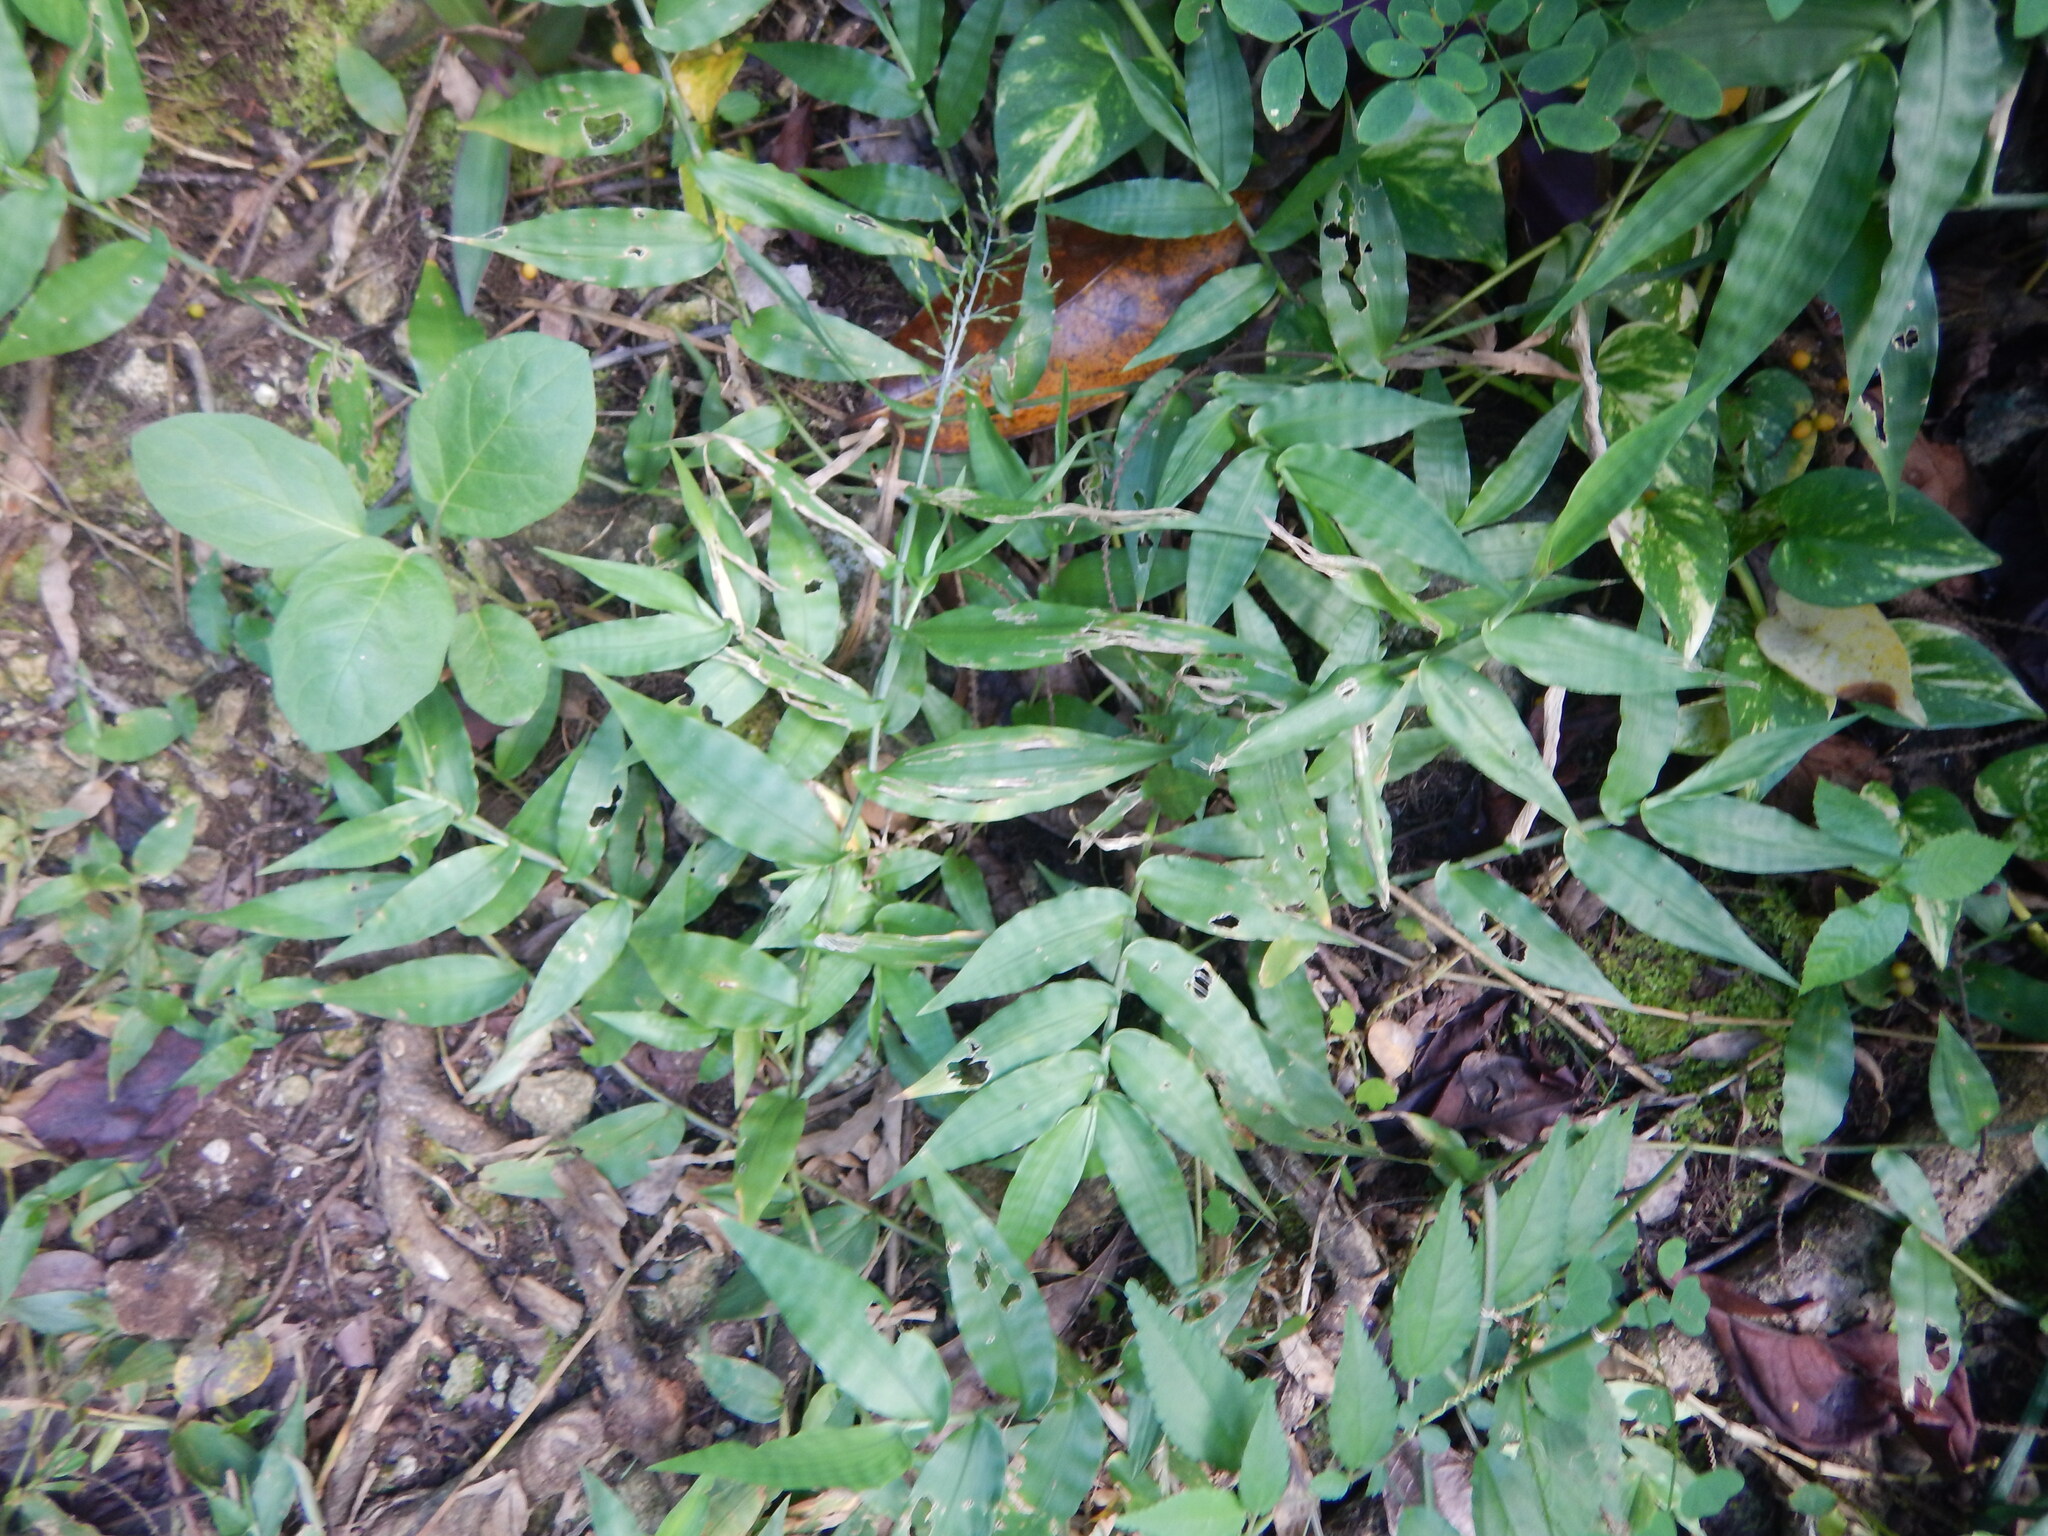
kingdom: Plantae
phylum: Tracheophyta
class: Liliopsida
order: Poales
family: Poaceae
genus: Ichnanthus
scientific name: Ichnanthus pallens
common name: Water grass
